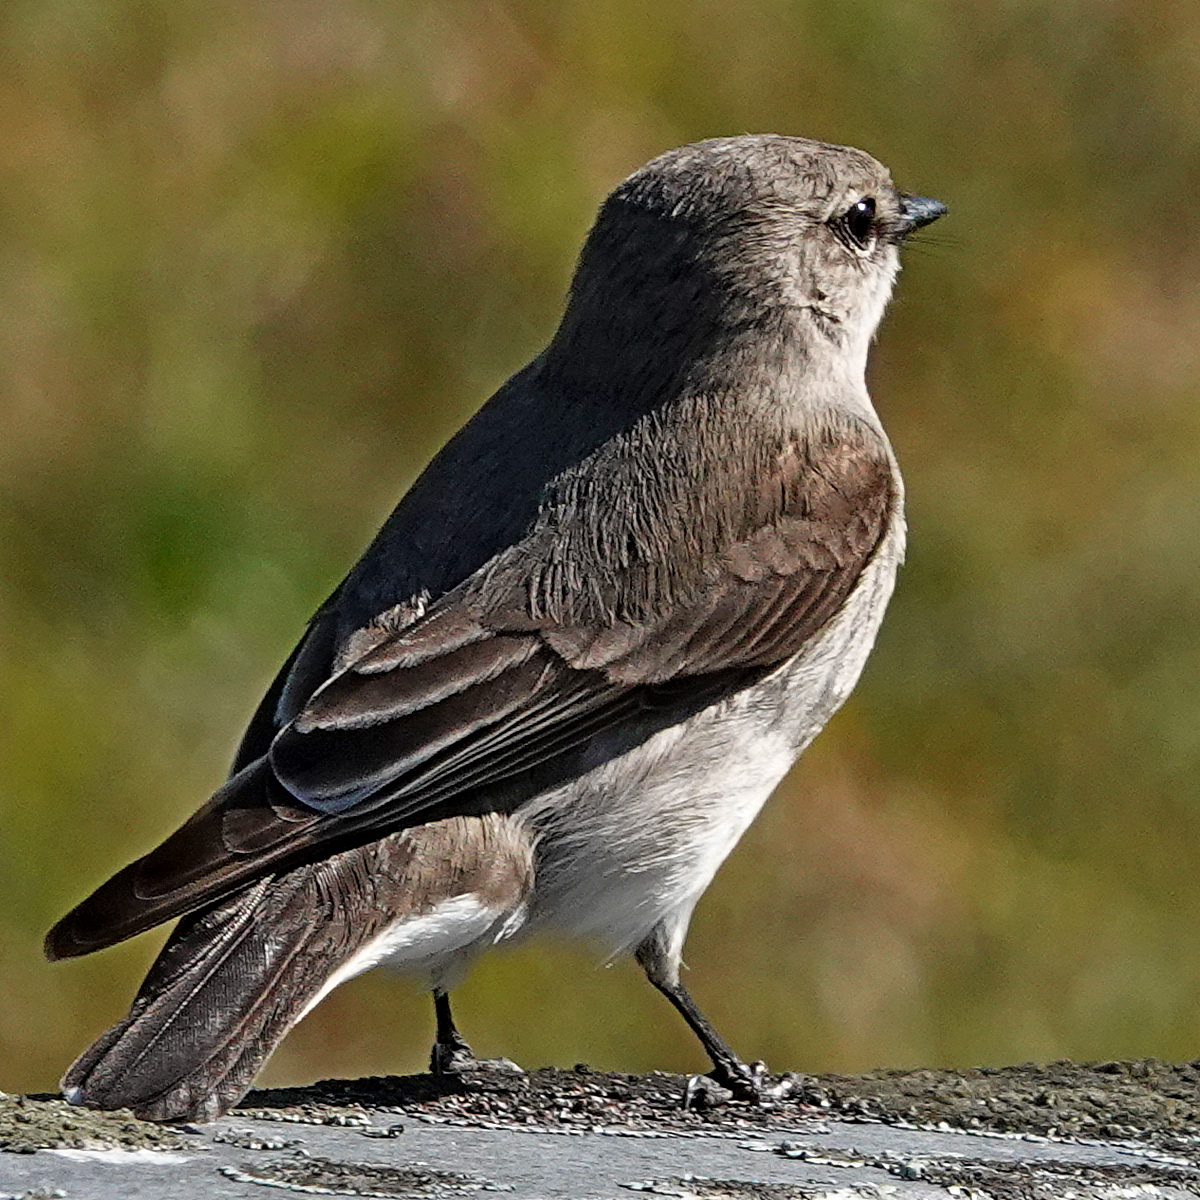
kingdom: Animalia
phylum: Chordata
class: Aves
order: Passeriformes
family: Petroicidae
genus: Microeca
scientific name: Microeca fascinans
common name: Jacky winter
